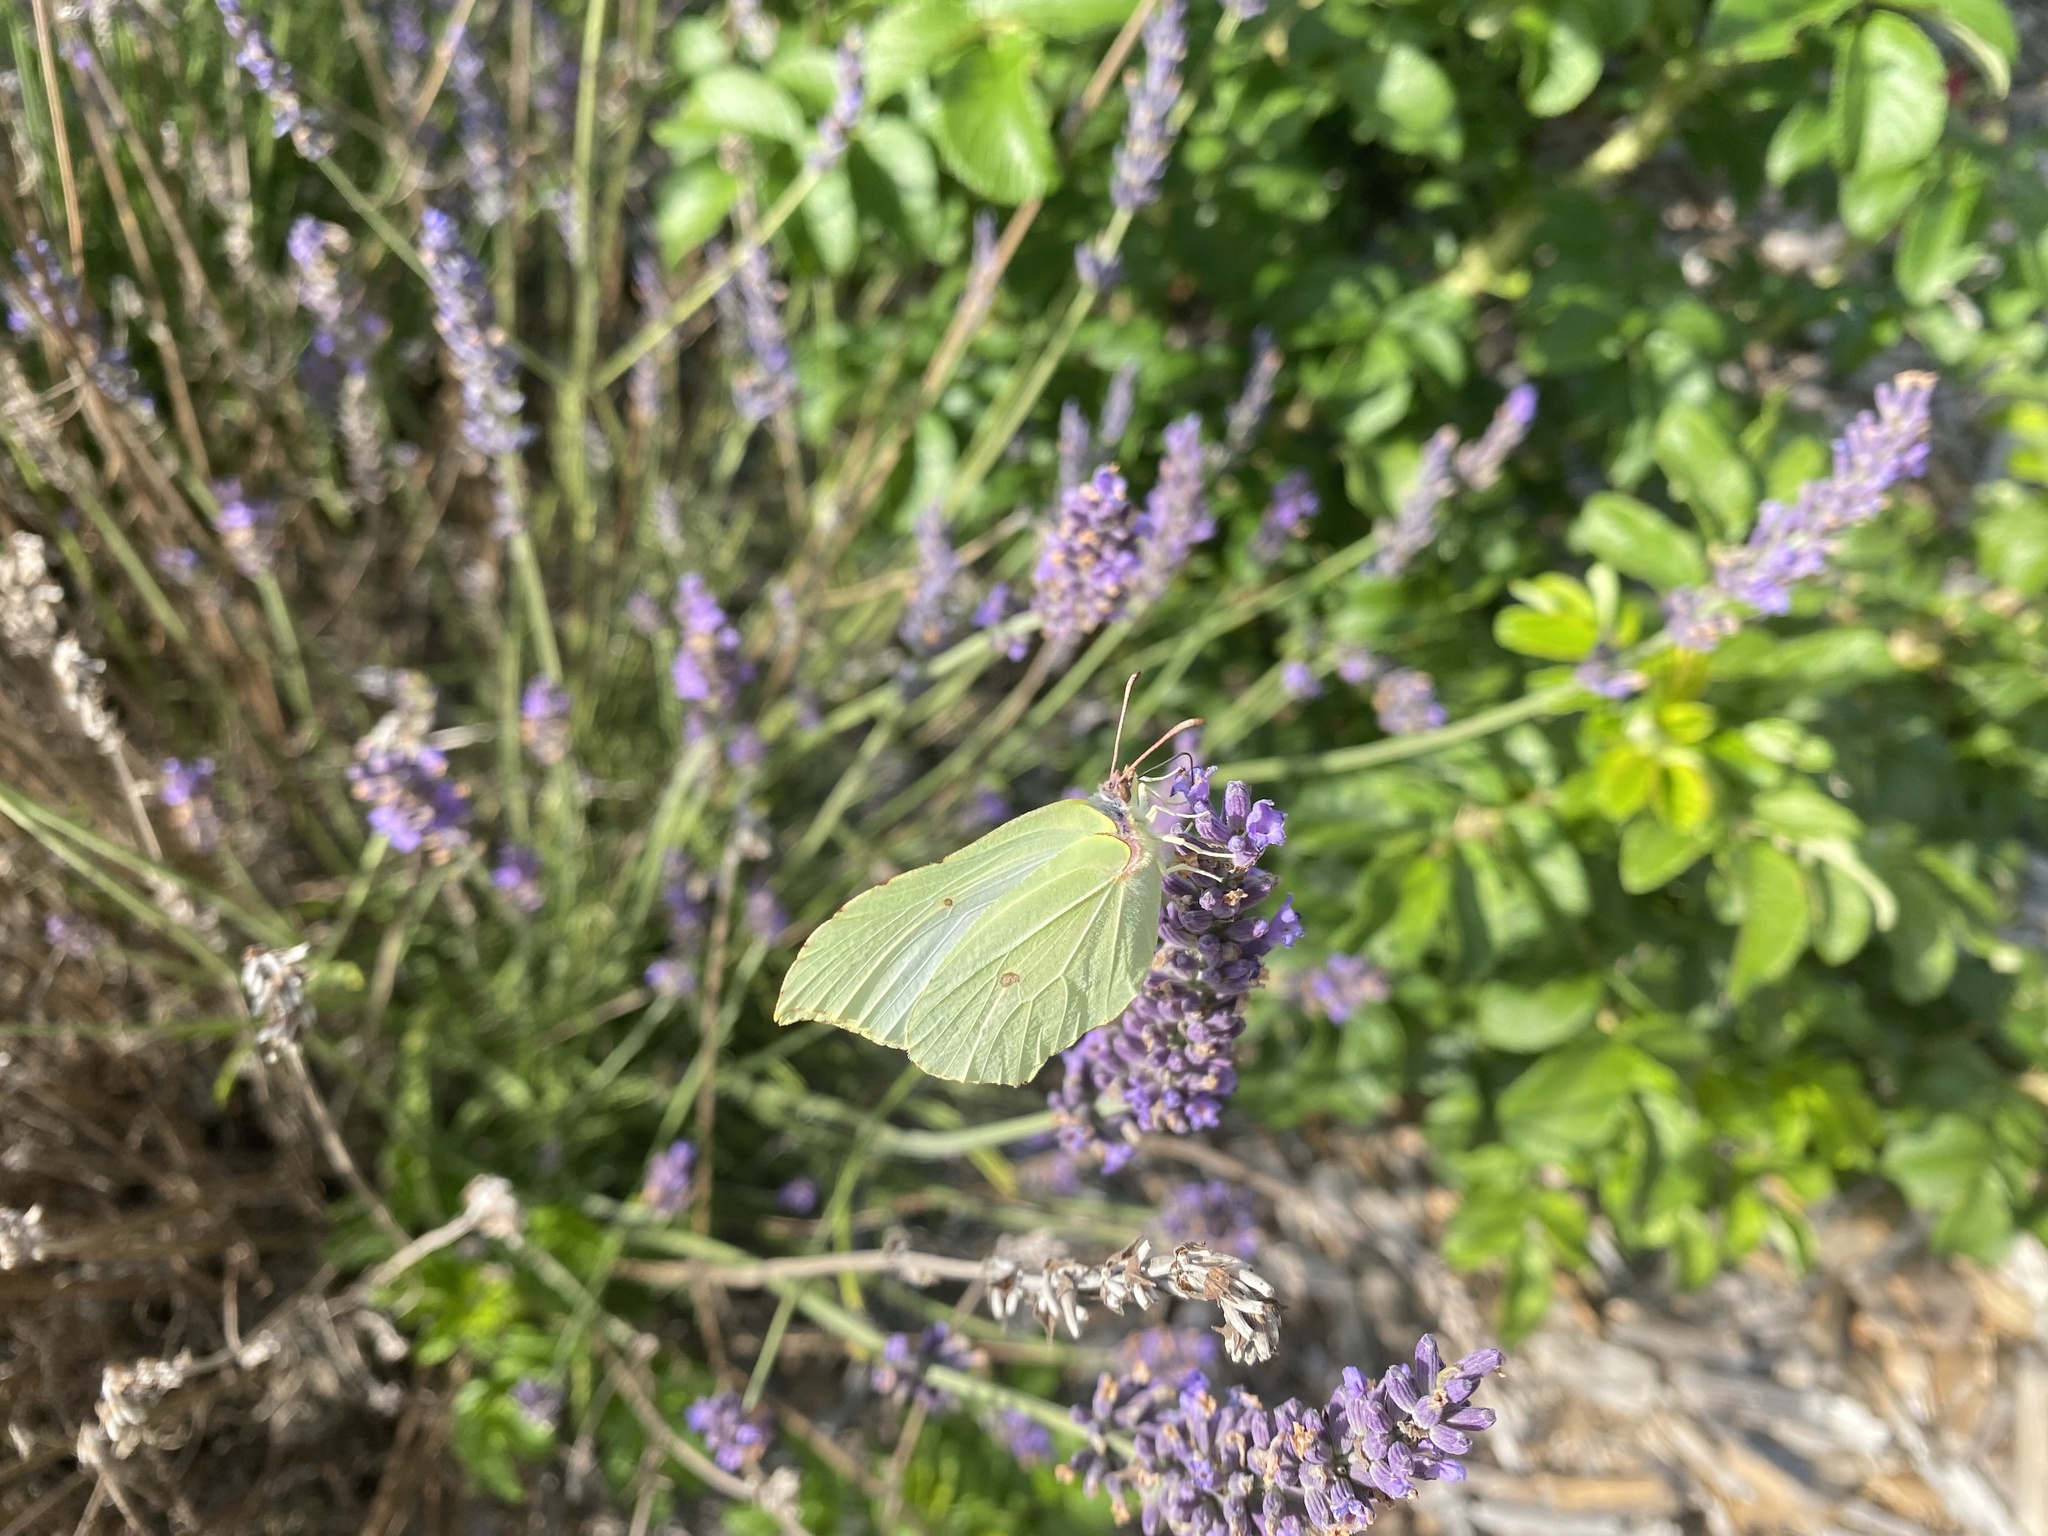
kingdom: Animalia
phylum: Arthropoda
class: Insecta
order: Lepidoptera
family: Pieridae
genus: Gonepteryx
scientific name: Gonepteryx rhamni
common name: Brimstone
